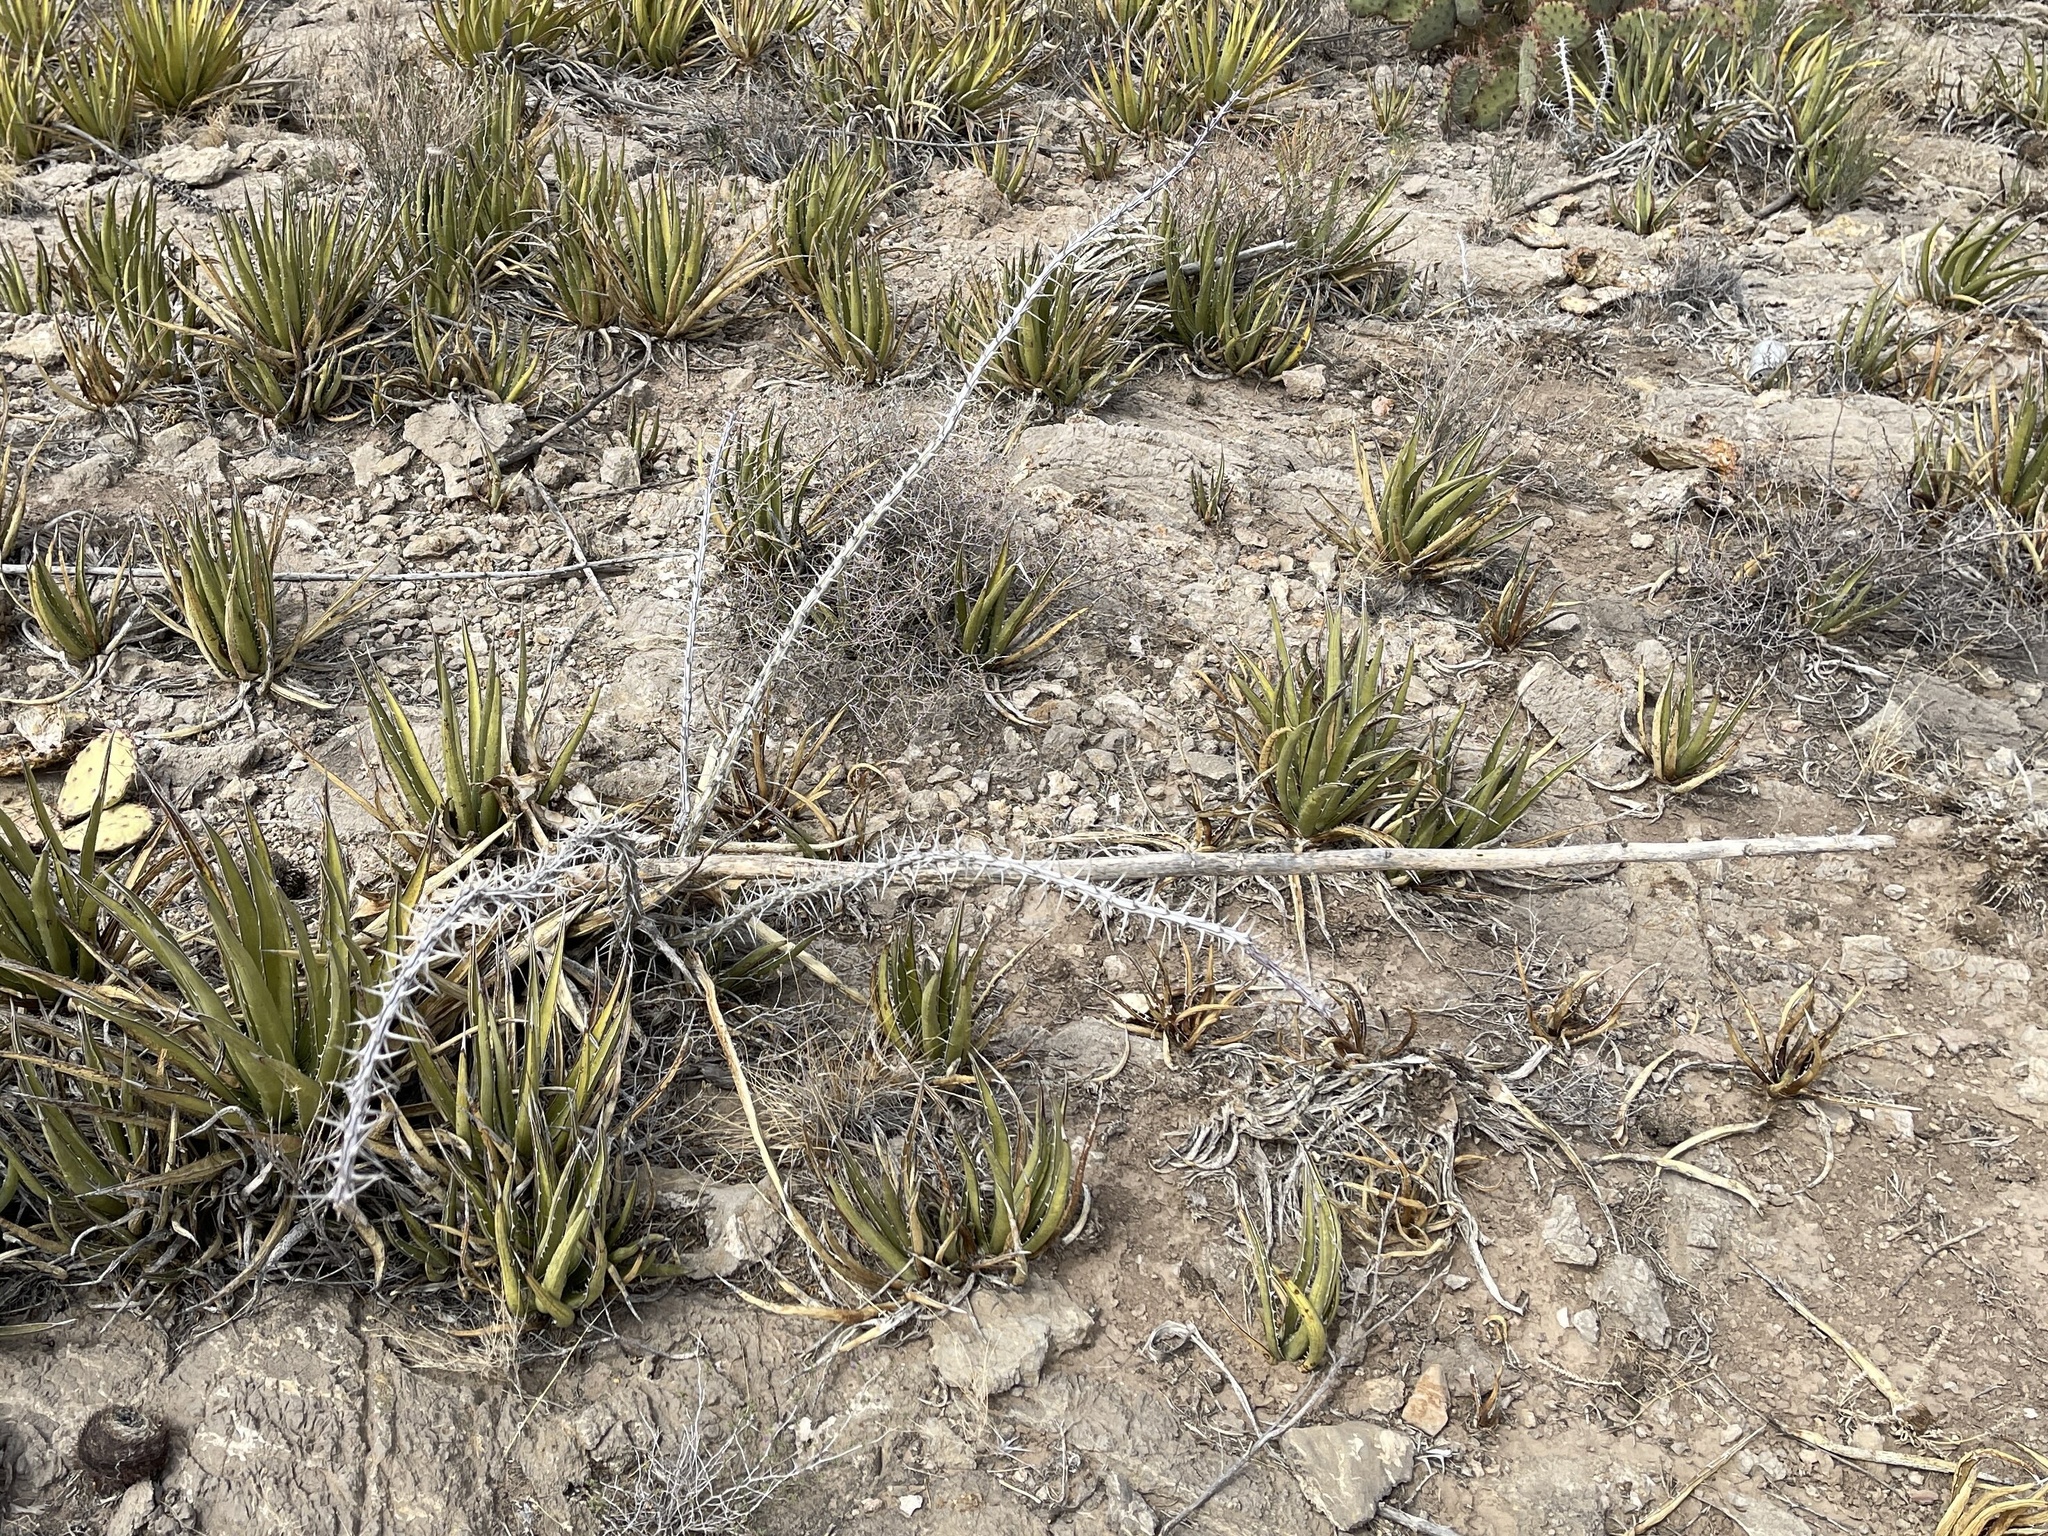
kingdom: Plantae
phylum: Tracheophyta
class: Magnoliopsida
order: Ericales
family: Fouquieriaceae
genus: Fouquieria
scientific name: Fouquieria splendens
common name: Vine-cactus
